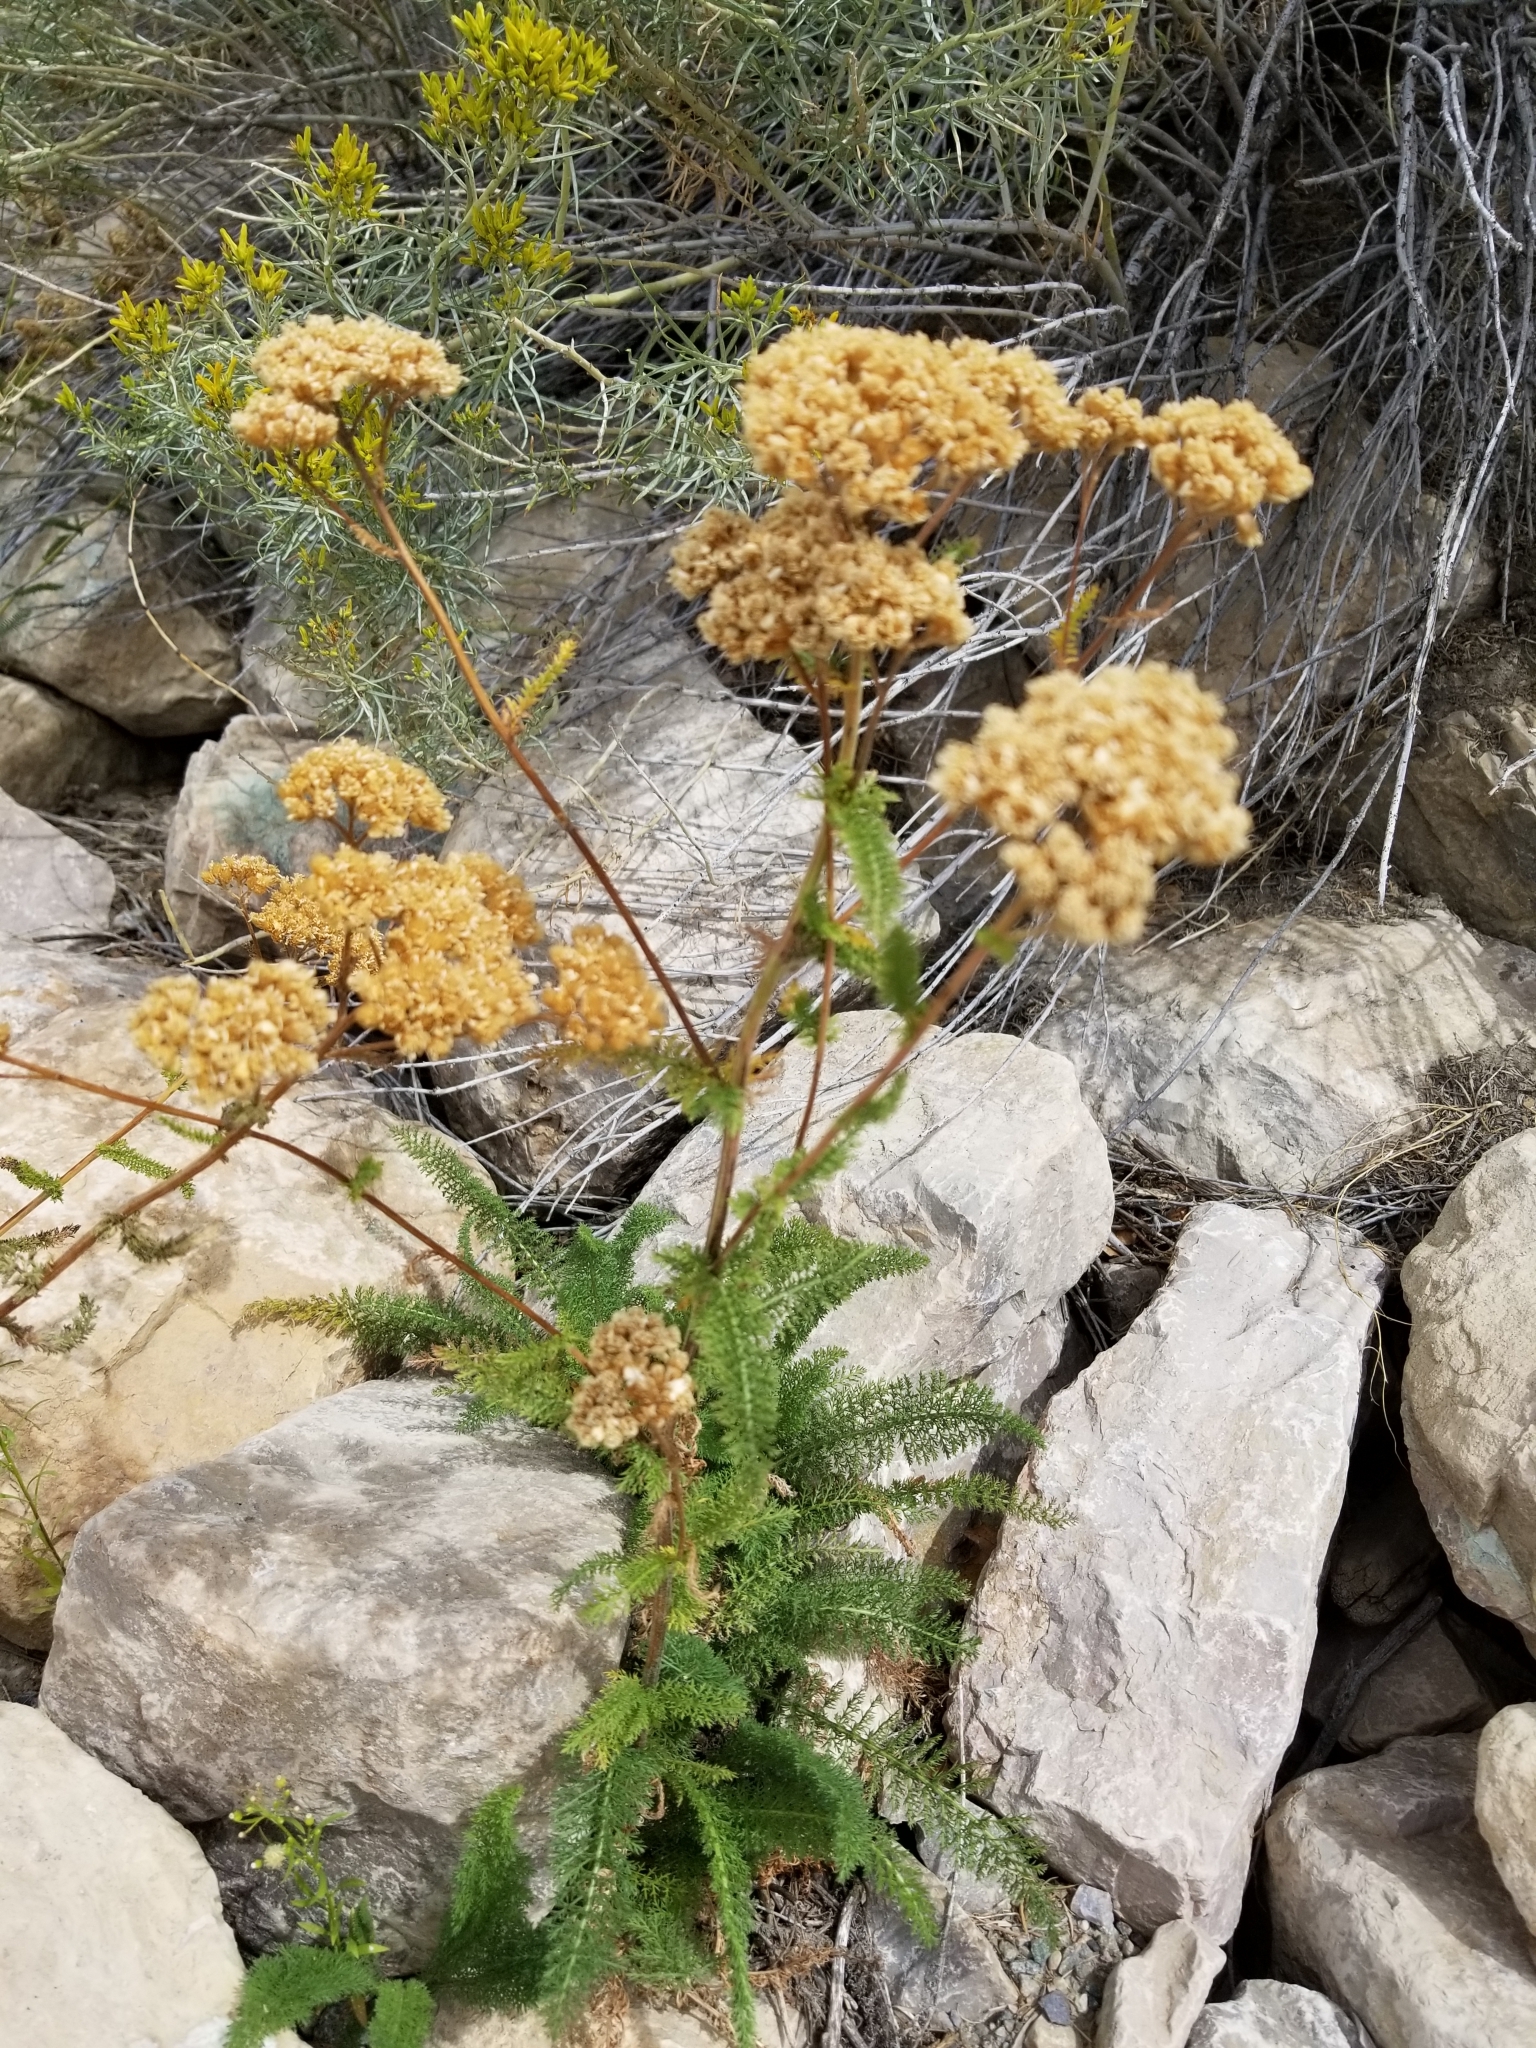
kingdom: Plantae
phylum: Tracheophyta
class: Magnoliopsida
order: Asterales
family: Asteraceae
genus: Achillea
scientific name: Achillea millefolium
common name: Yarrow
